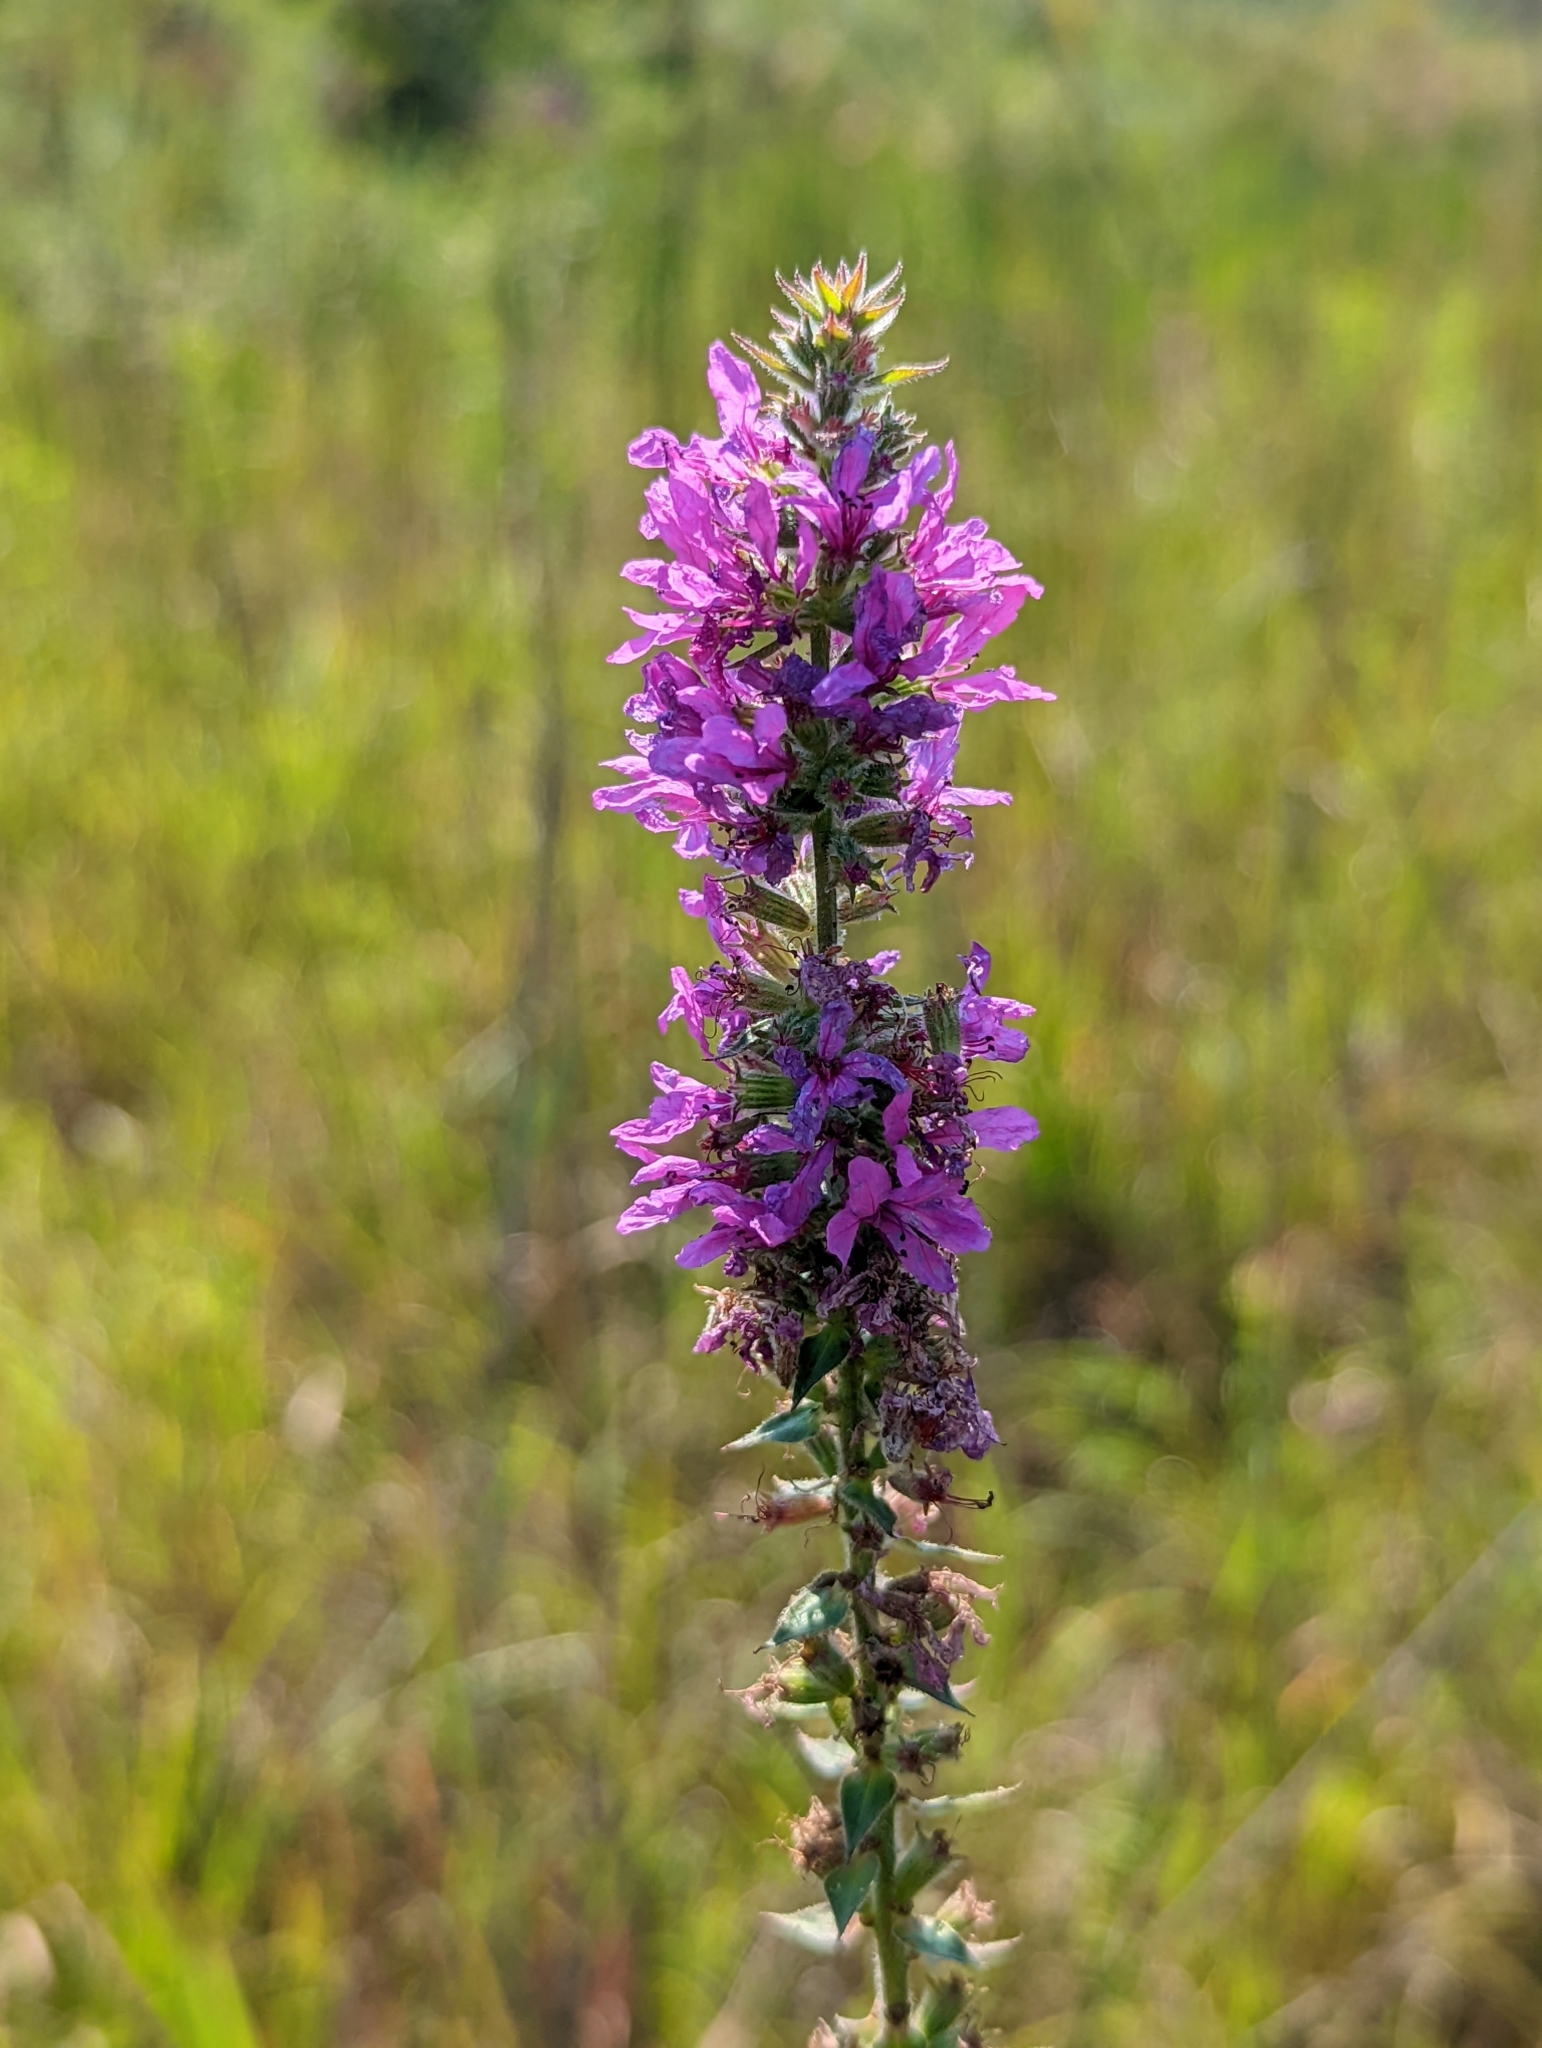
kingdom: Plantae
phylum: Tracheophyta
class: Magnoliopsida
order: Myrtales
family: Lythraceae
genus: Lythrum
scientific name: Lythrum salicaria
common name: Purple loosestrife
